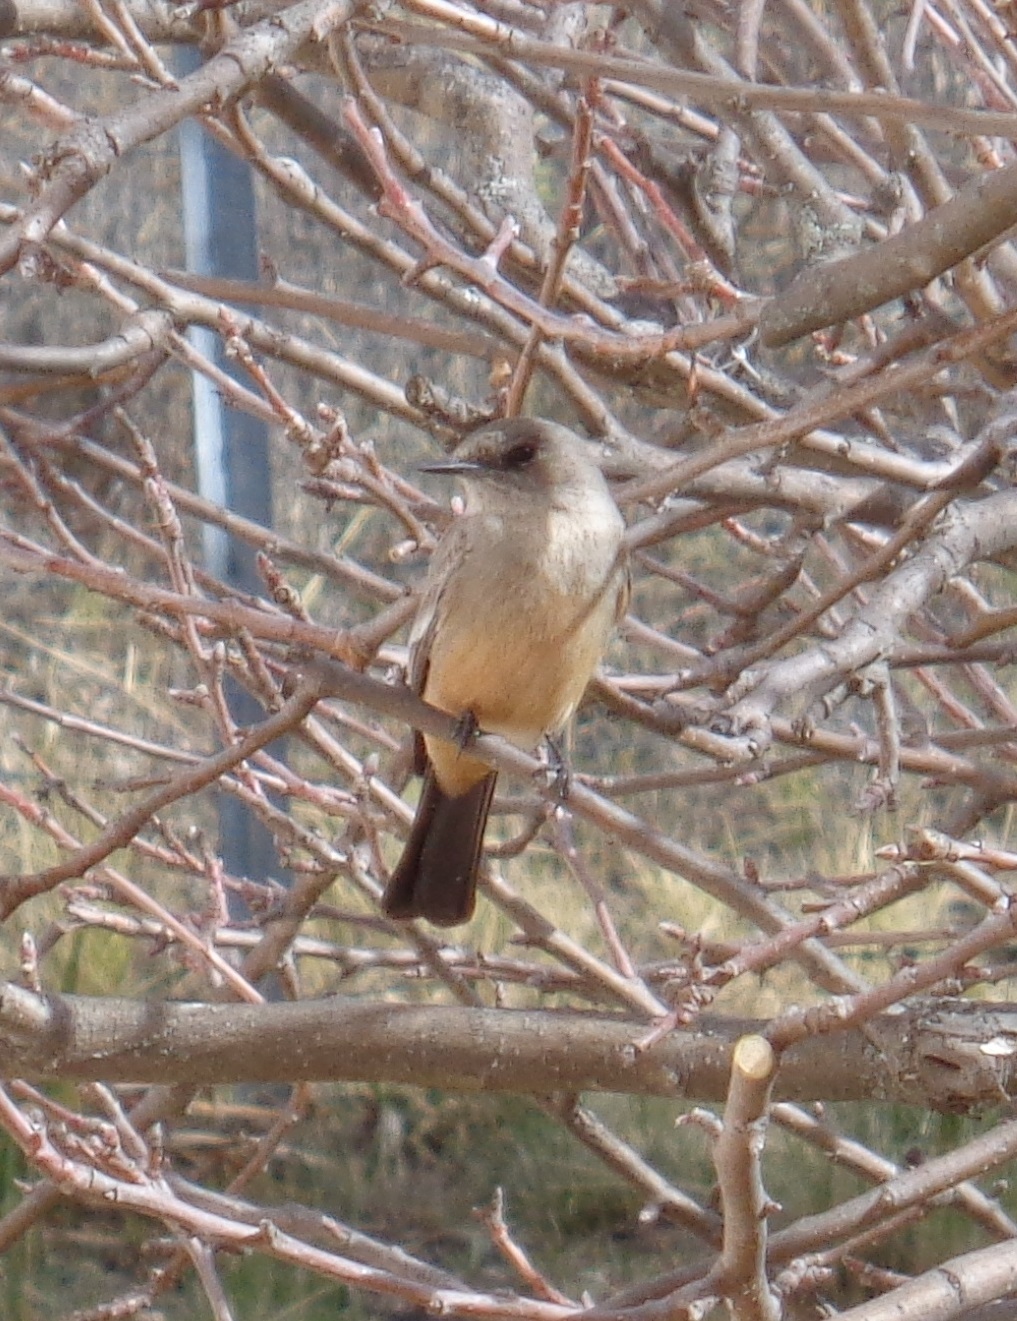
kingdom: Animalia
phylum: Chordata
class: Aves
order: Passeriformes
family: Tyrannidae
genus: Sayornis
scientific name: Sayornis saya
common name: Say's phoebe
